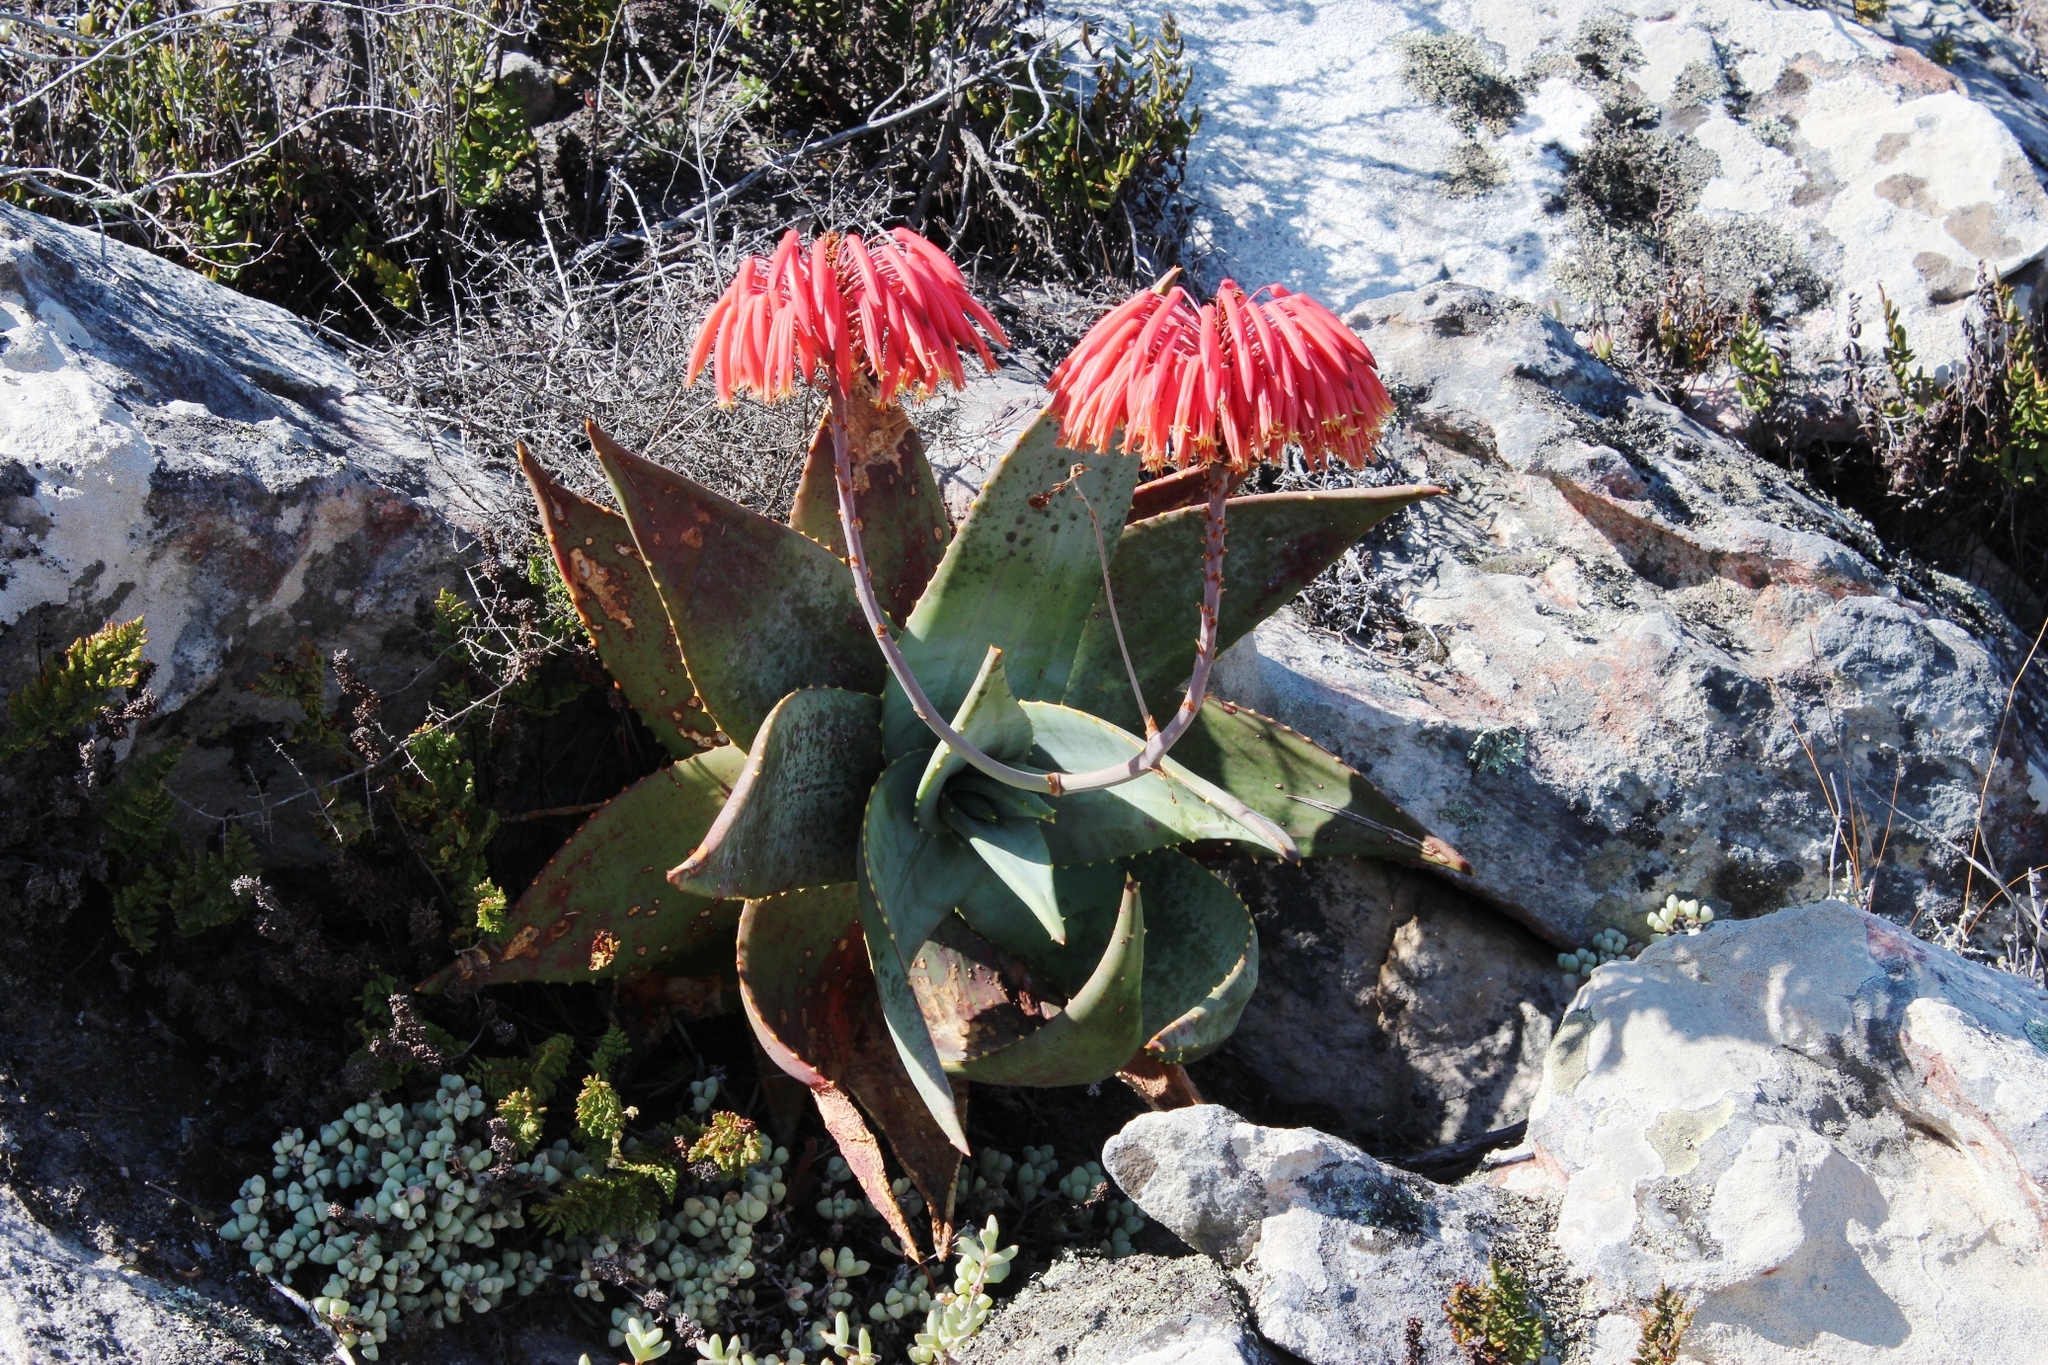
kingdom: Plantae
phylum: Tracheophyta
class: Liliopsida
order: Asparagales
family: Asphodelaceae
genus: Aloe
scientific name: Aloe perfoliata
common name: Mitra aloe
